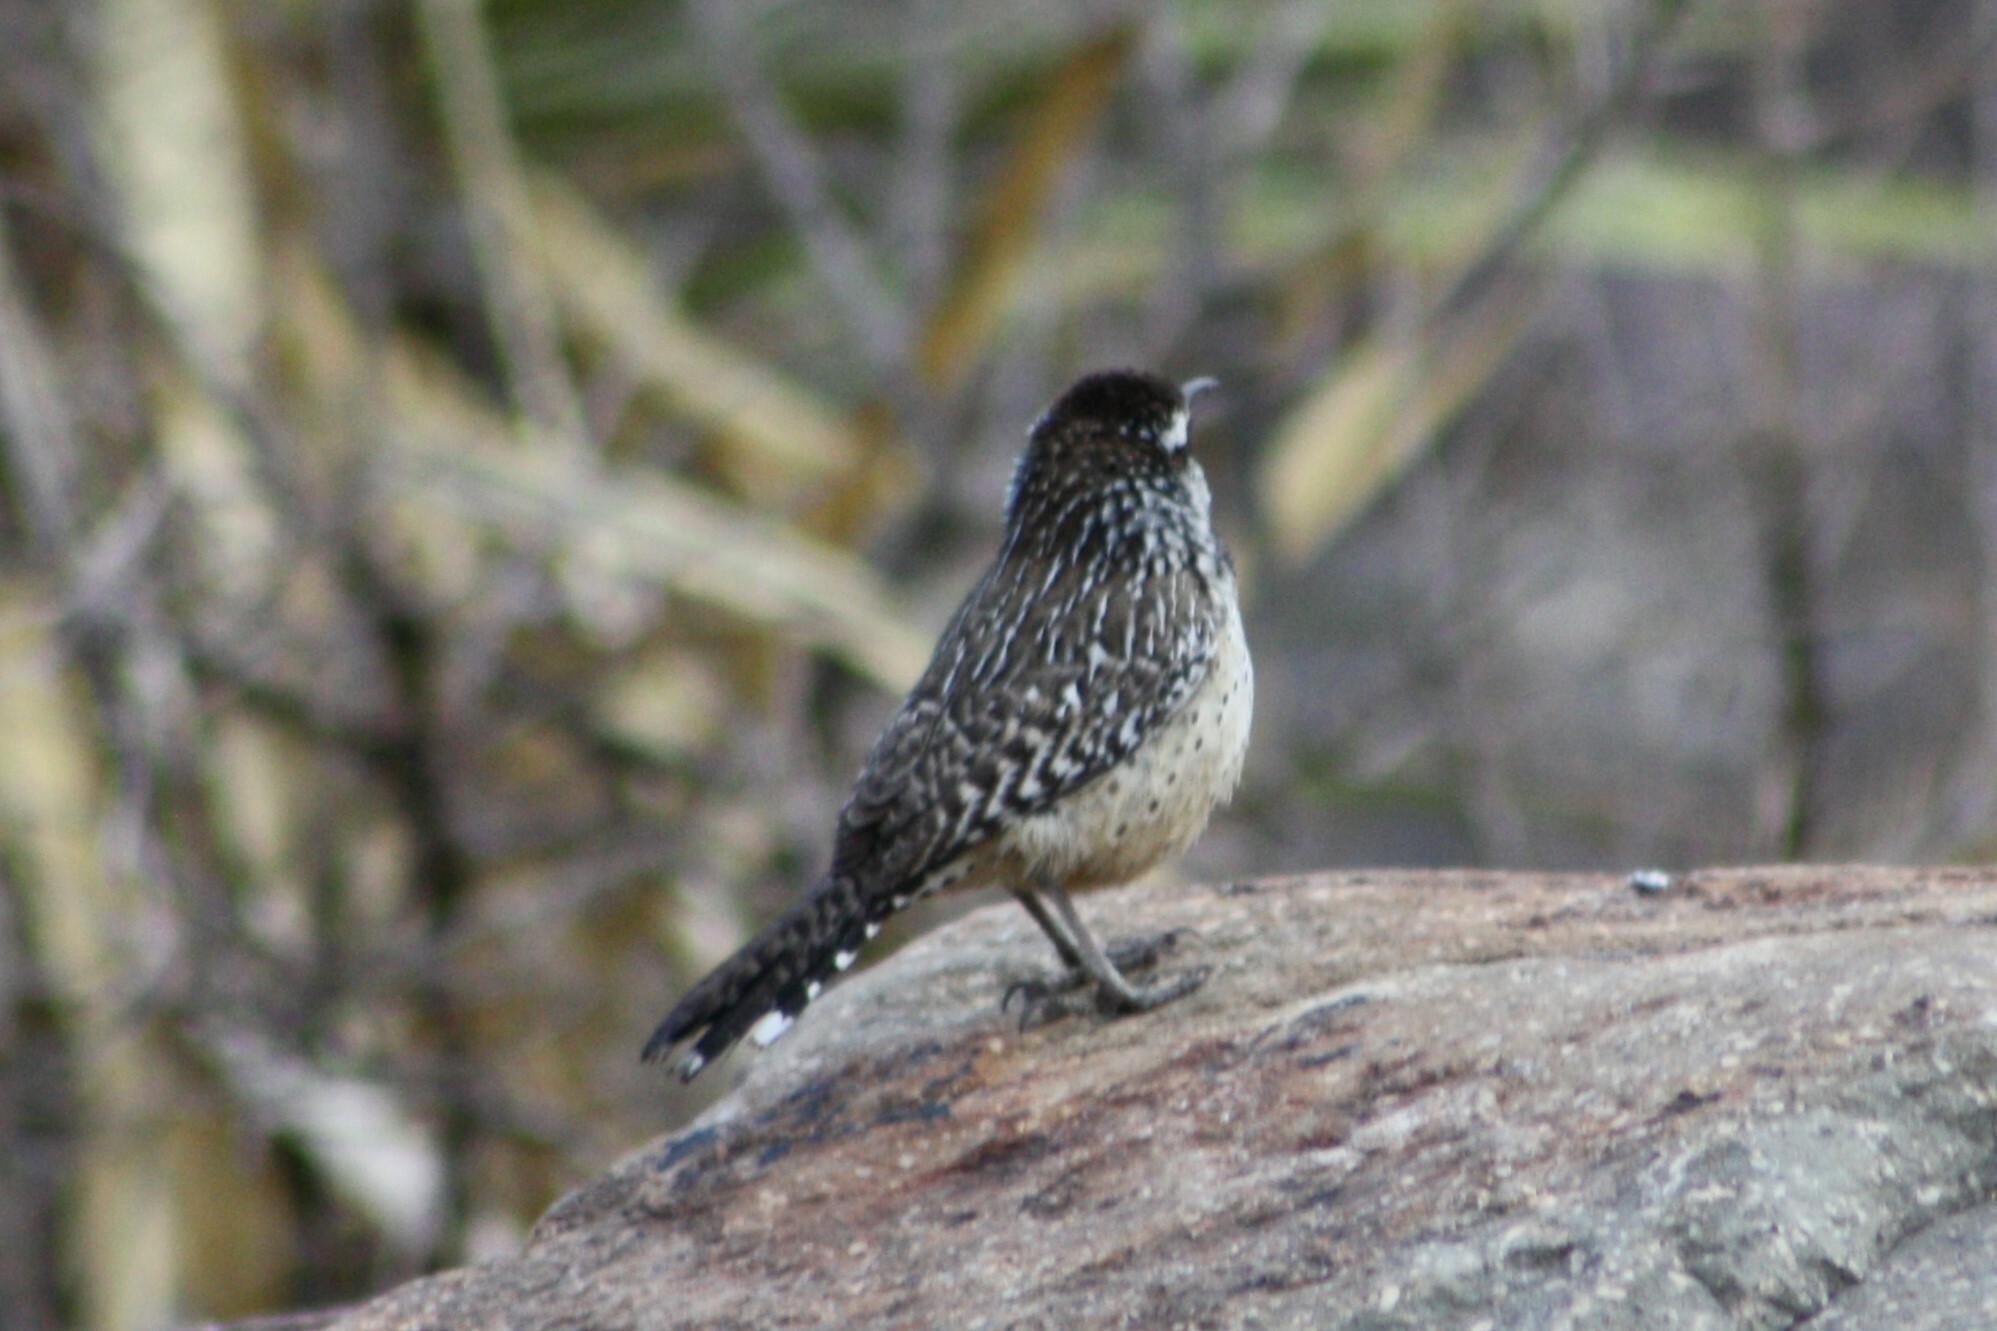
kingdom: Animalia
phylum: Chordata
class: Aves
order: Passeriformes
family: Troglodytidae
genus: Campylorhynchus
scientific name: Campylorhynchus brunneicapillus
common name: Cactus wren
